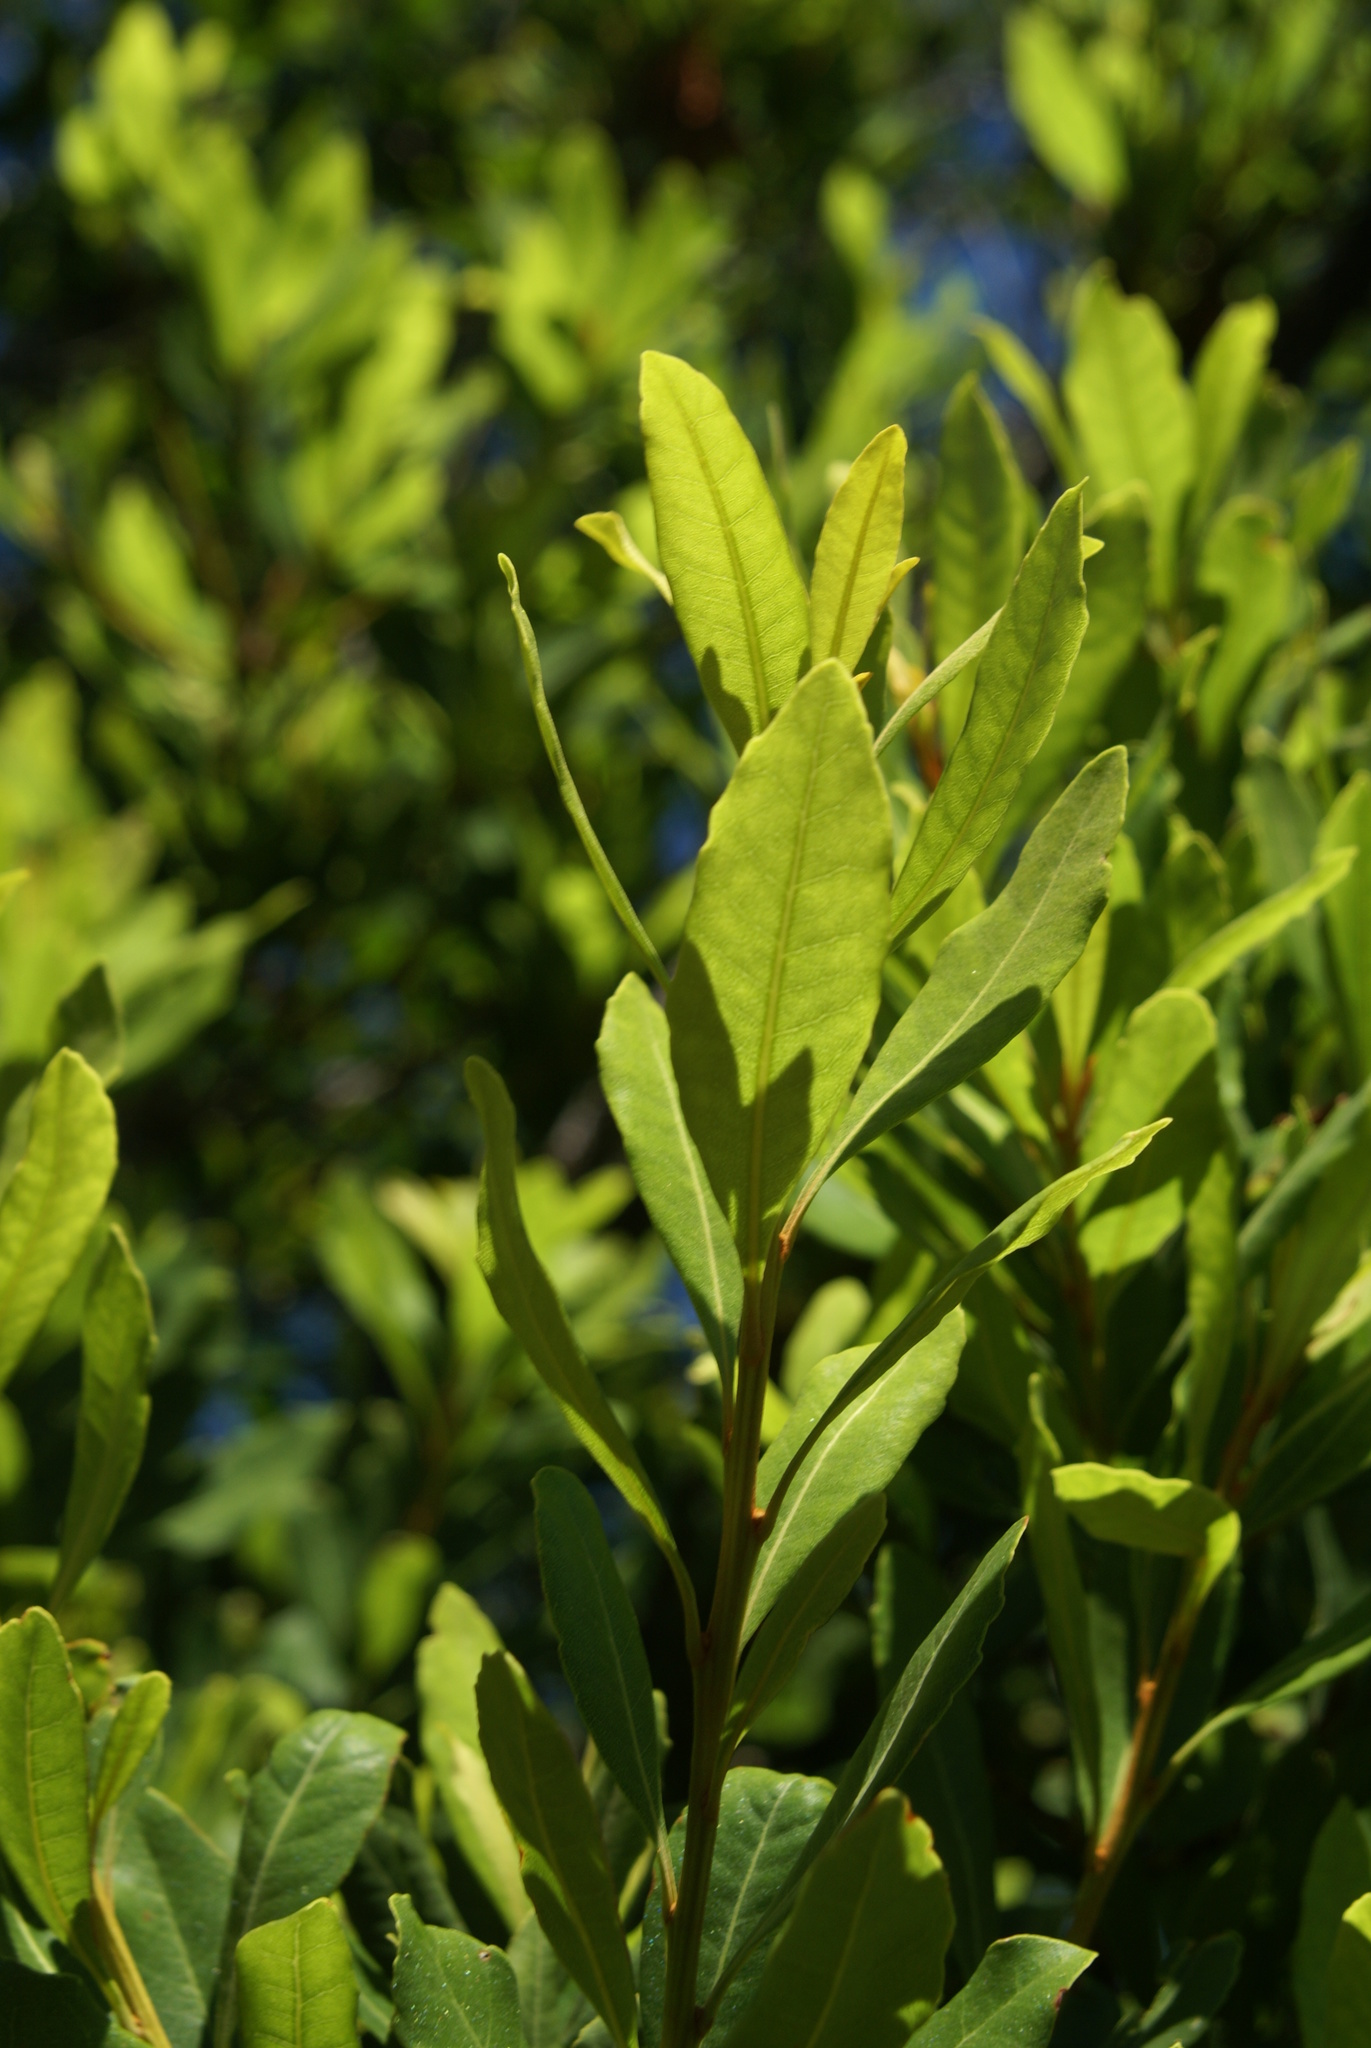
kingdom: Plantae
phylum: Tracheophyta
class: Magnoliopsida
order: Fagales
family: Myricaceae
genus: Morella
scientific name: Morella faya
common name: Firetree
